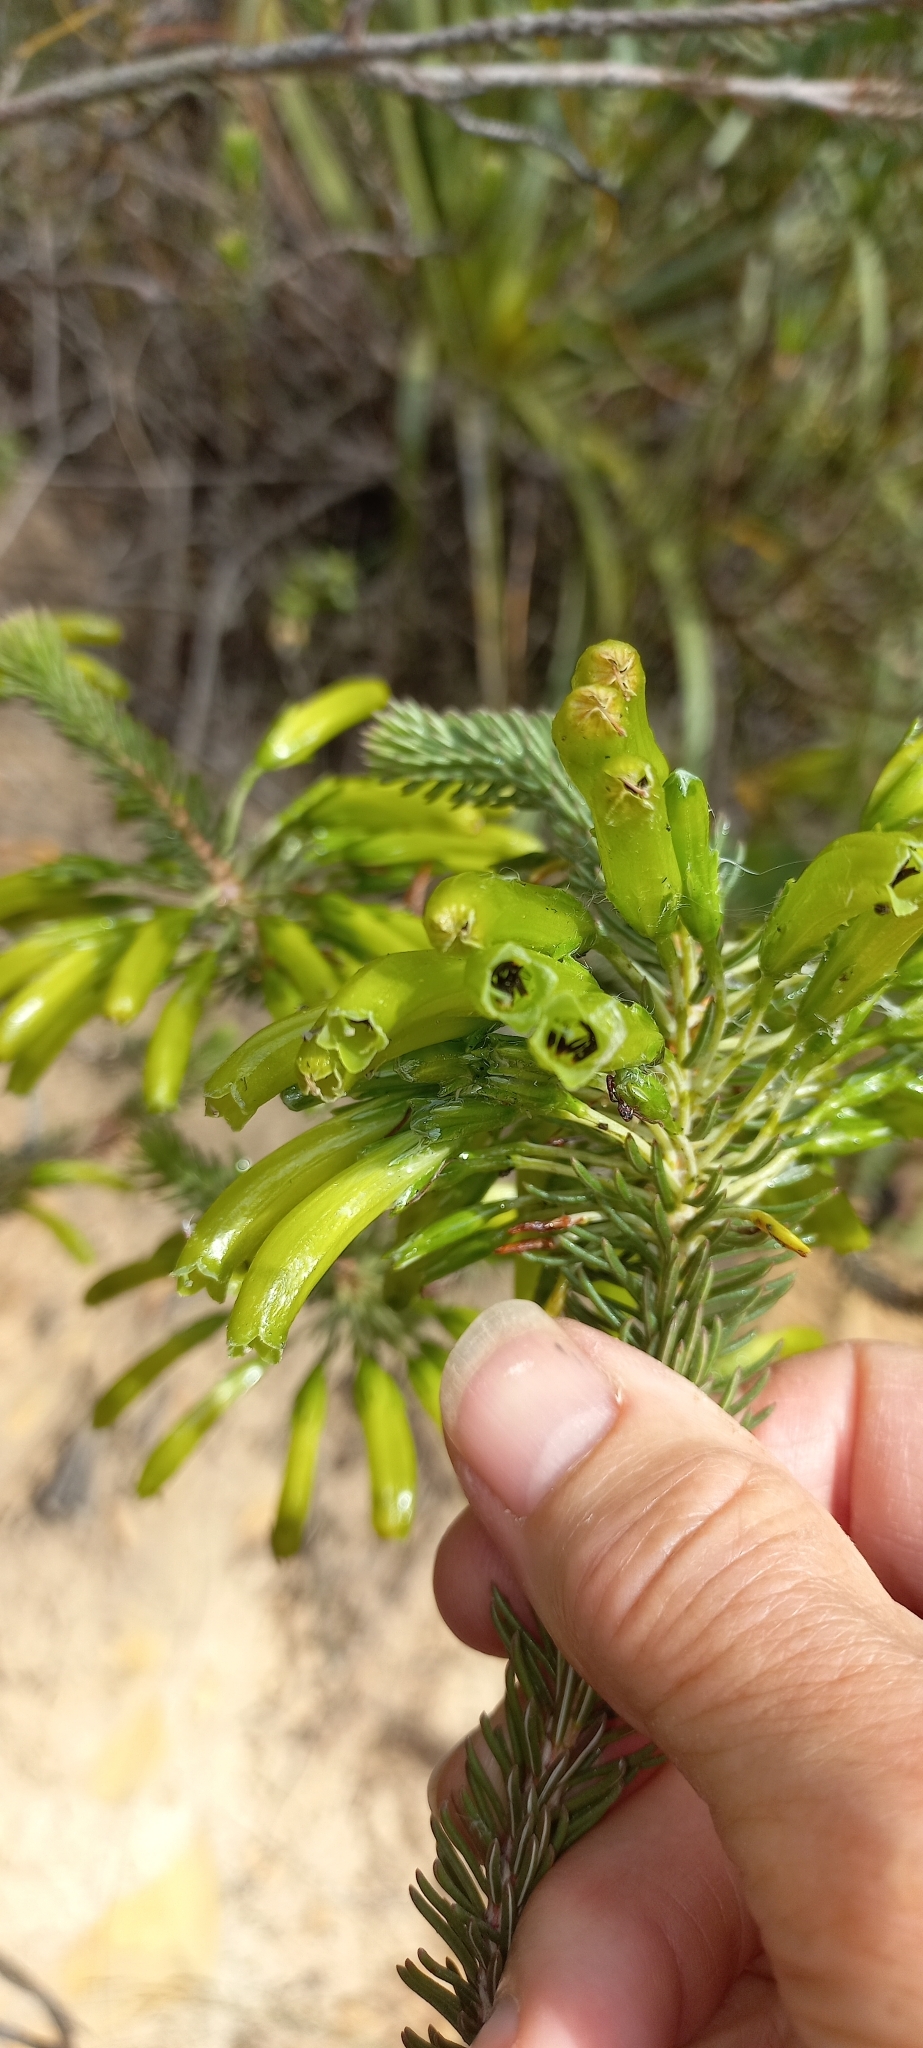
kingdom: Plantae
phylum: Tracheophyta
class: Magnoliopsida
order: Ericales
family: Ericaceae
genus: Erica
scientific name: Erica thomae
